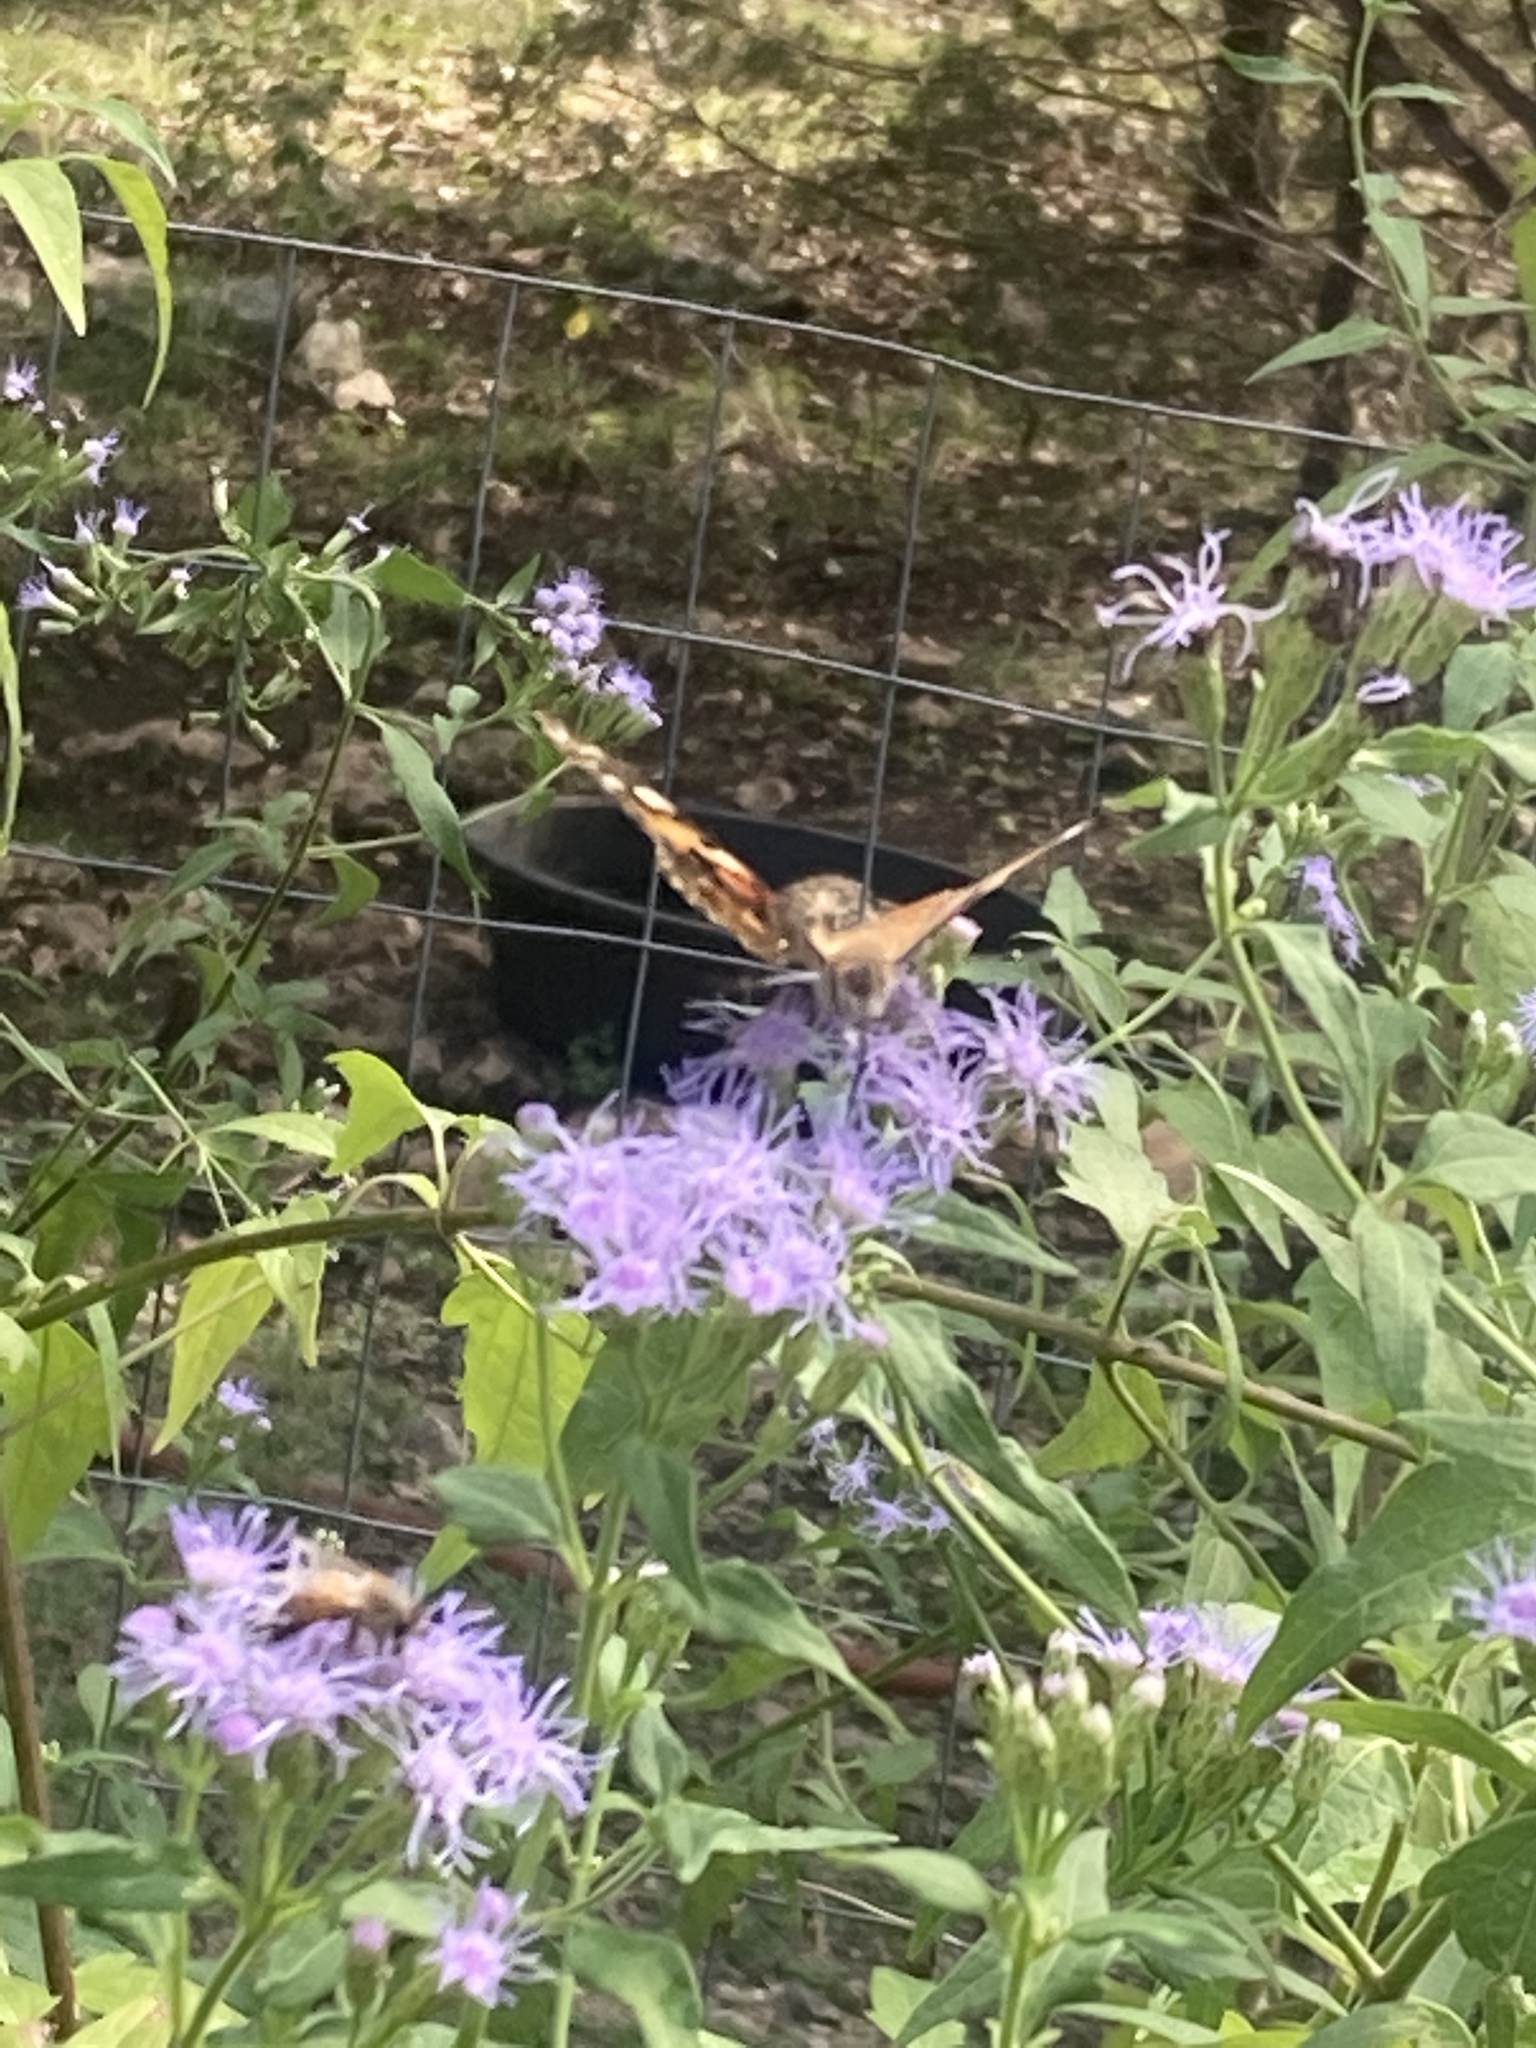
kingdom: Animalia
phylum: Arthropoda
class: Insecta
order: Lepidoptera
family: Nymphalidae
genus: Vanessa
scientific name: Vanessa cardui
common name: Painted lady
